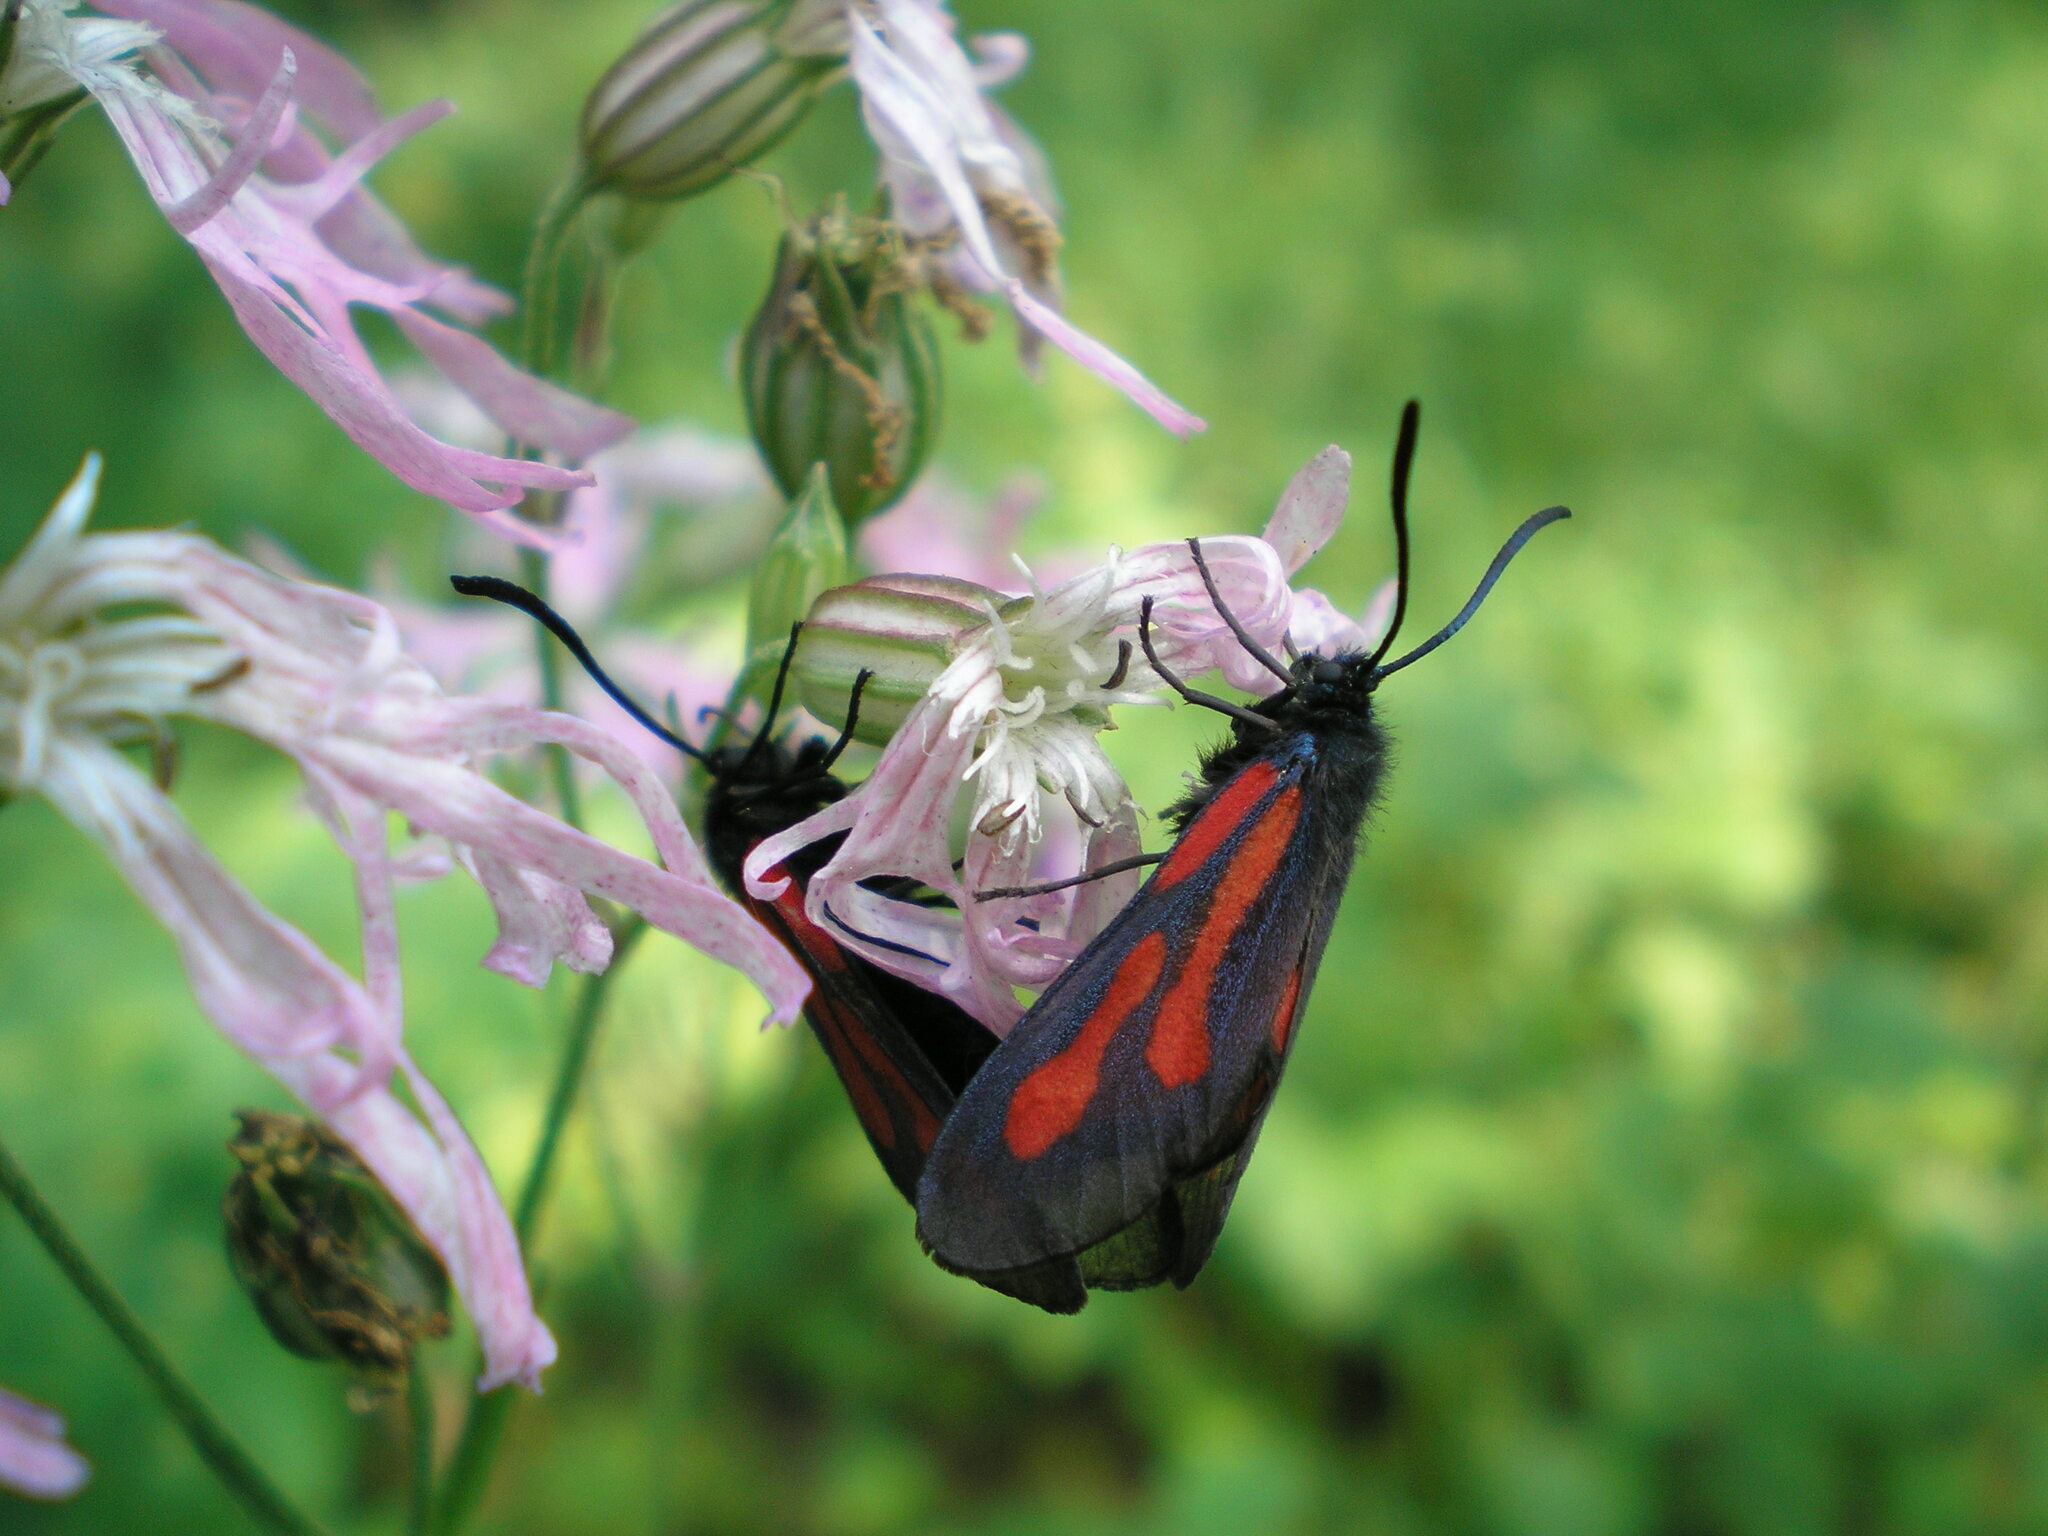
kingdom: Animalia
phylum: Arthropoda
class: Insecta
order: Lepidoptera
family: Zygaenidae
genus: Zygaena
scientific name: Zygaena osterodensis
